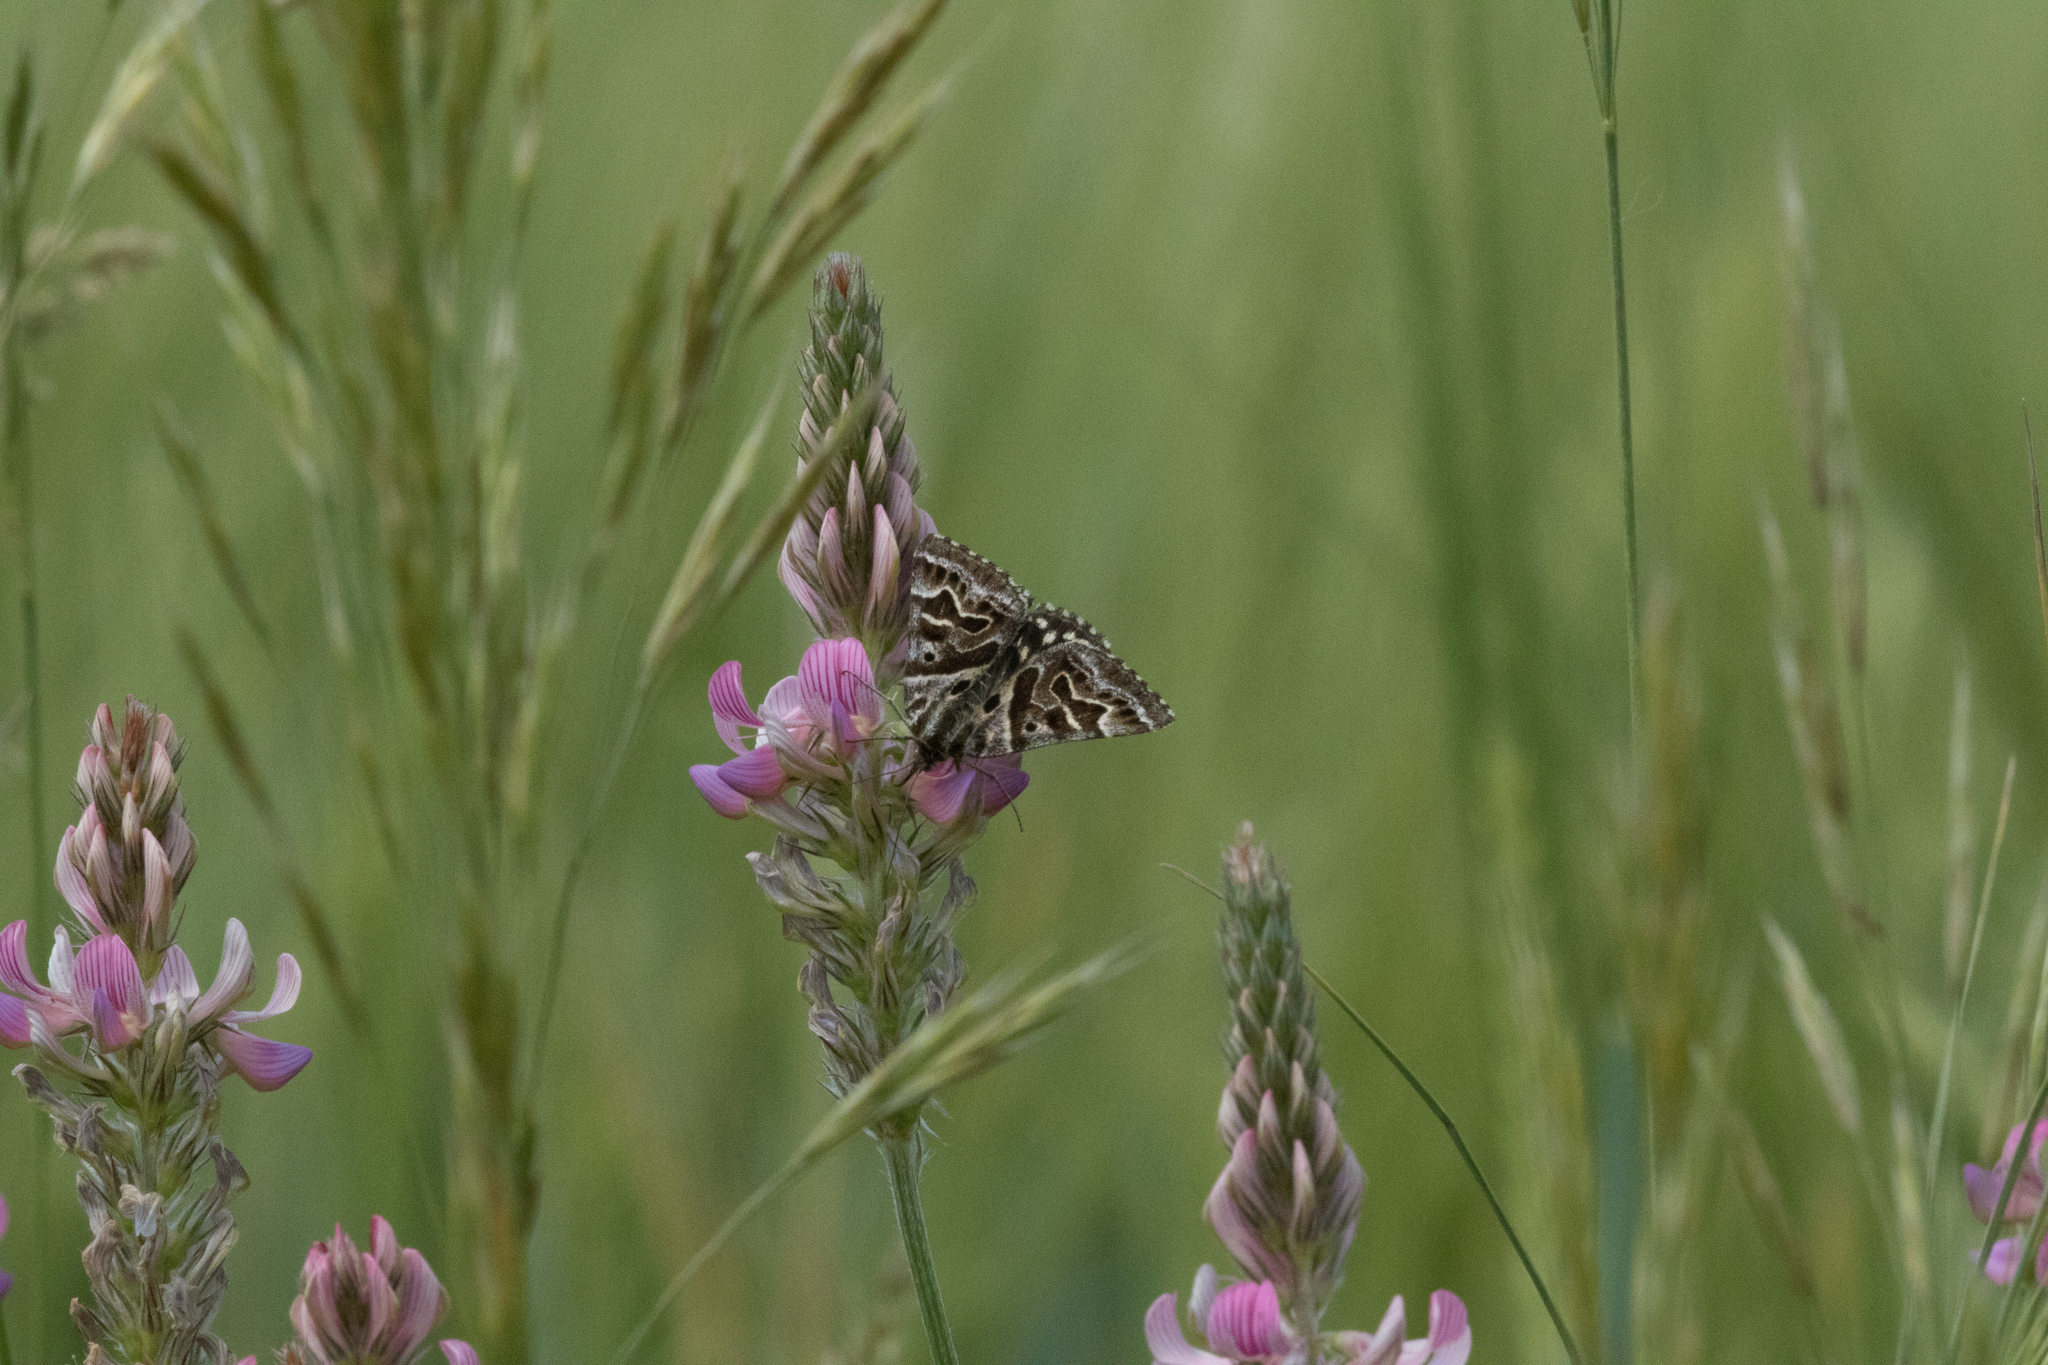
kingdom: Animalia
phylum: Arthropoda
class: Insecta
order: Lepidoptera
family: Erebidae
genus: Callistege
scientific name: Callistege mi
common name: Mother shipton
